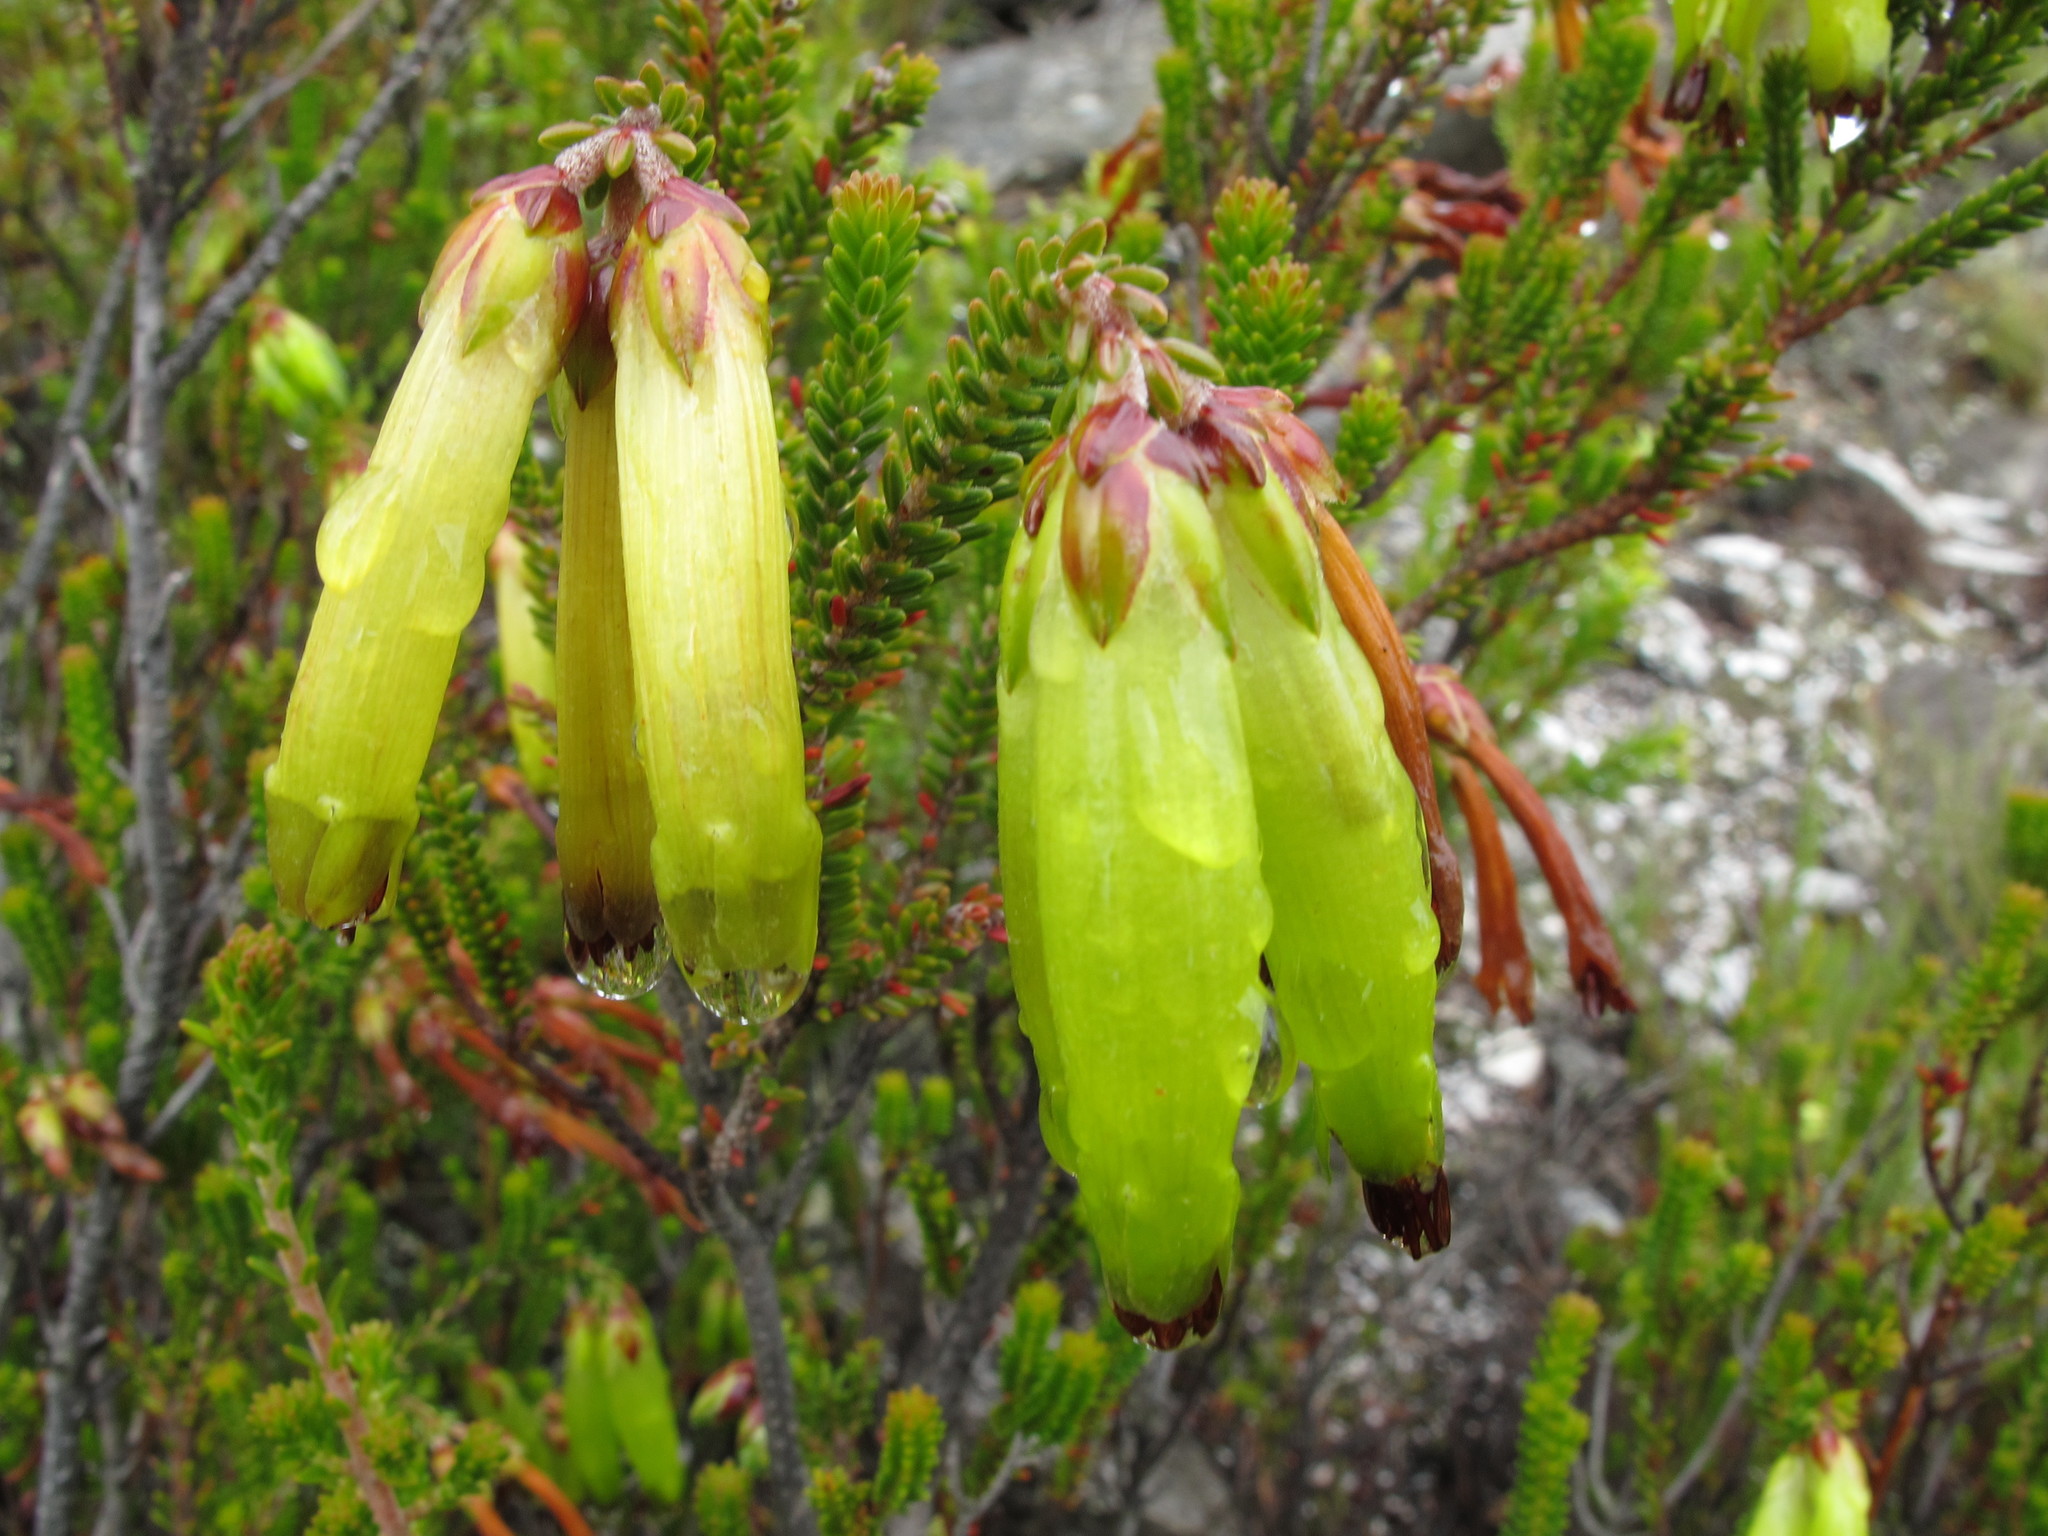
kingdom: Plantae
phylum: Tracheophyta
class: Magnoliopsida
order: Ericales
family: Ericaceae
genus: Erica
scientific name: Erica viridiflora
